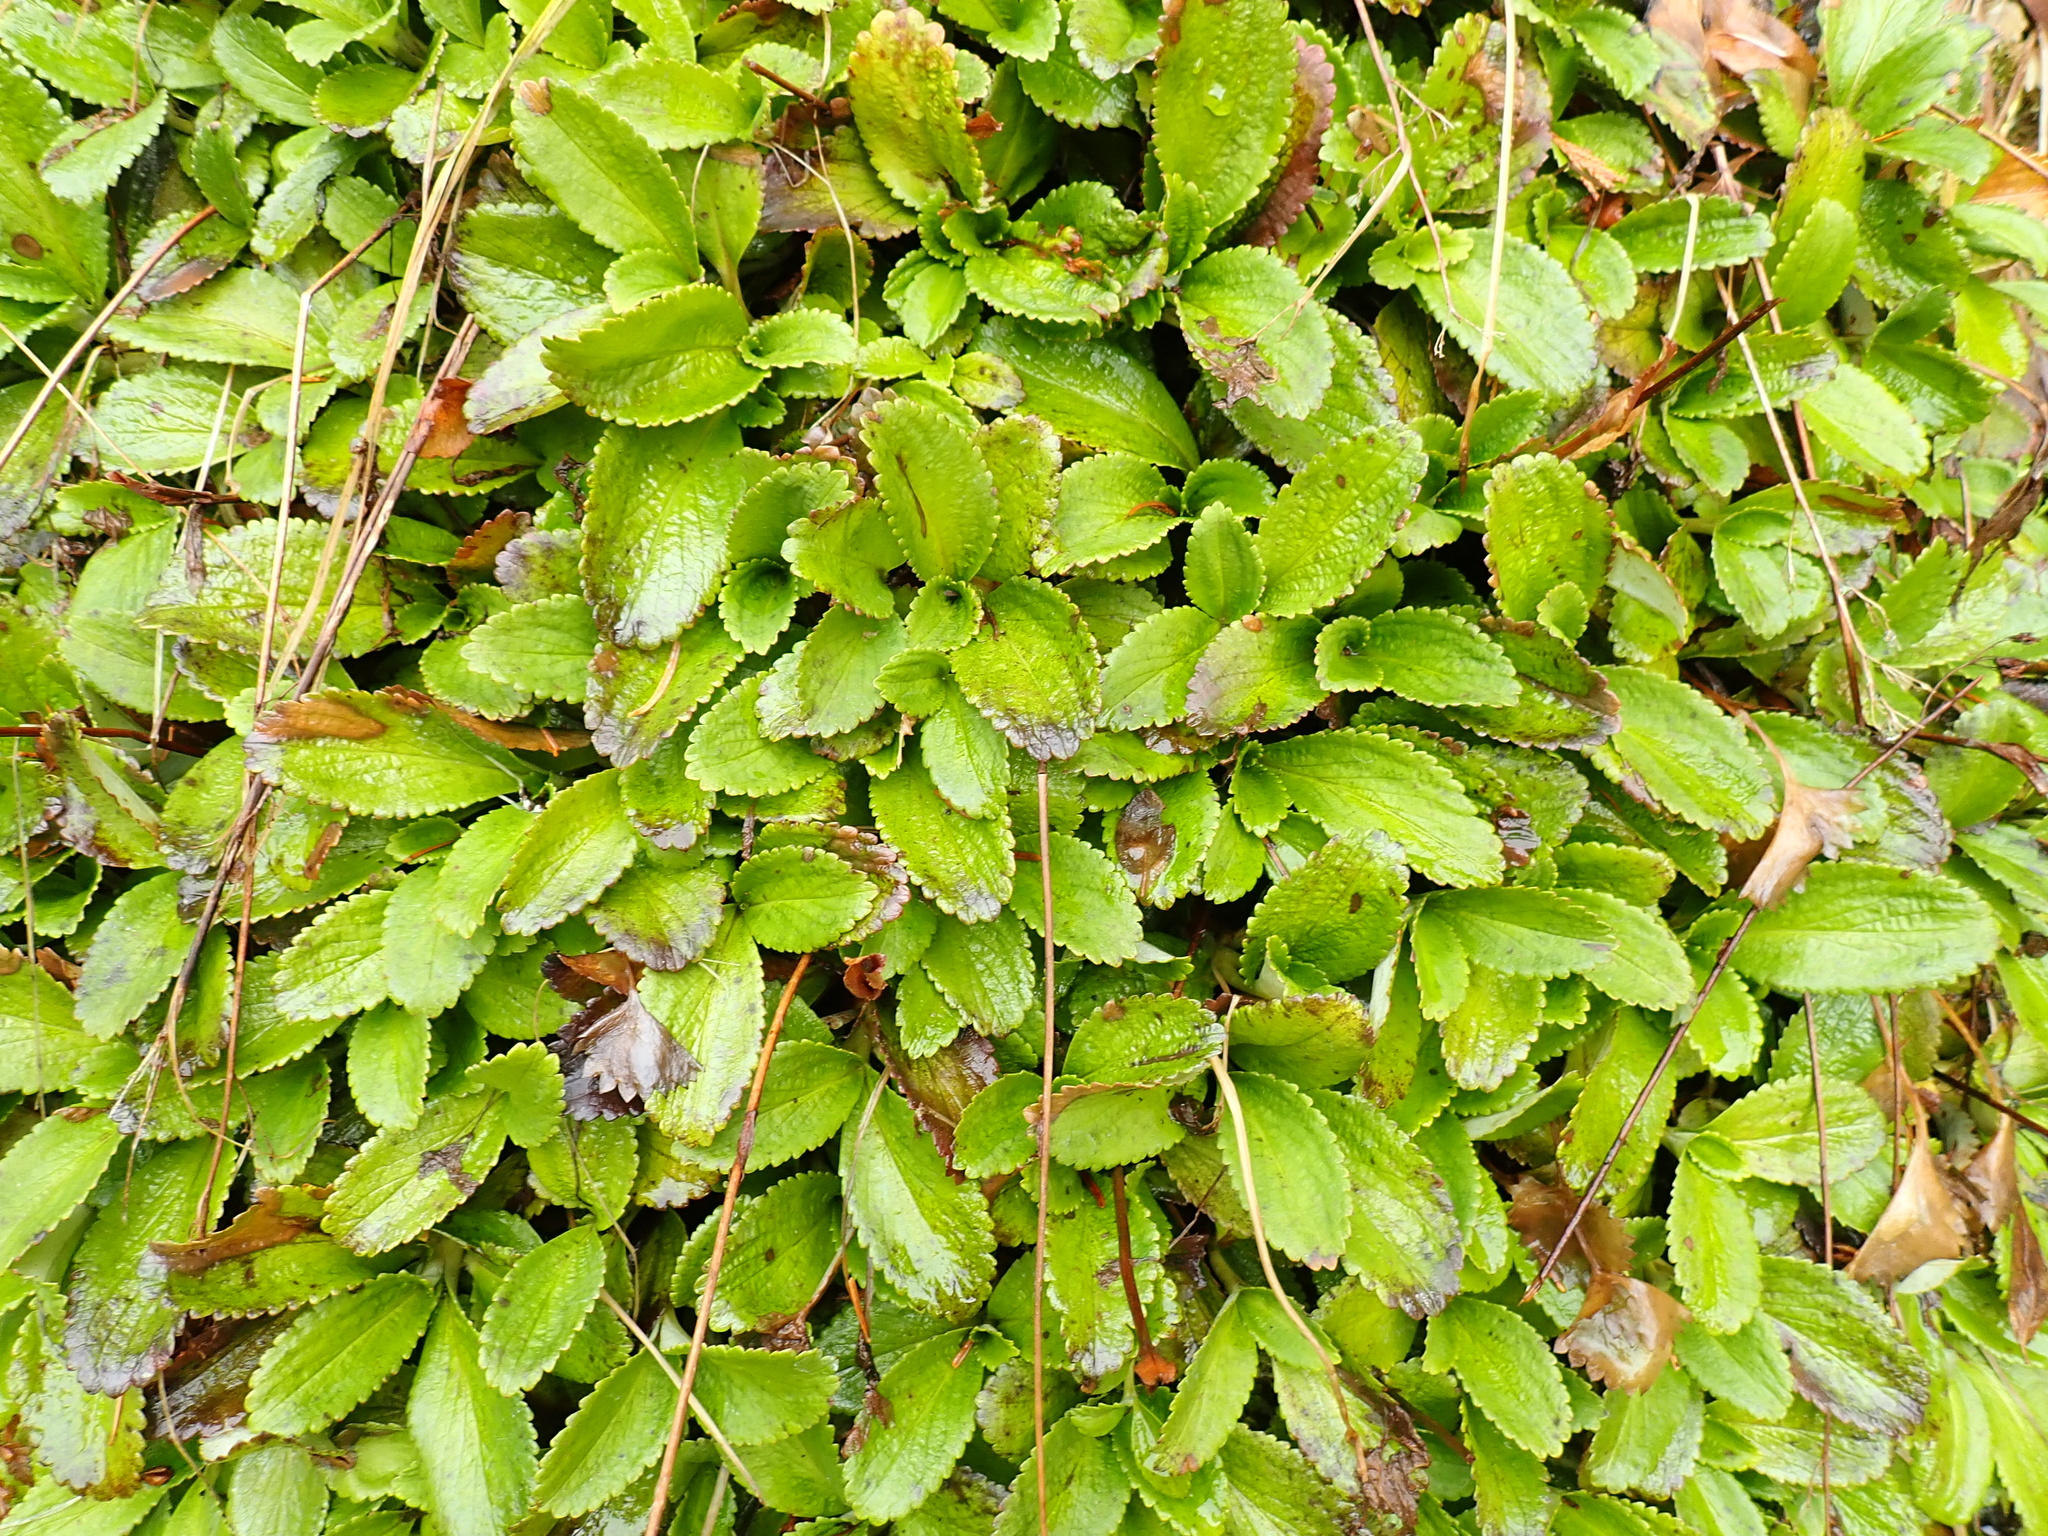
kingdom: Plantae
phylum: Tracheophyta
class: Magnoliopsida
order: Saxifragales
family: Saxifragaceae
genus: Leptarrhena
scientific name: Leptarrhena pyrolifolia
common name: Leatherleaf-saxifrage
